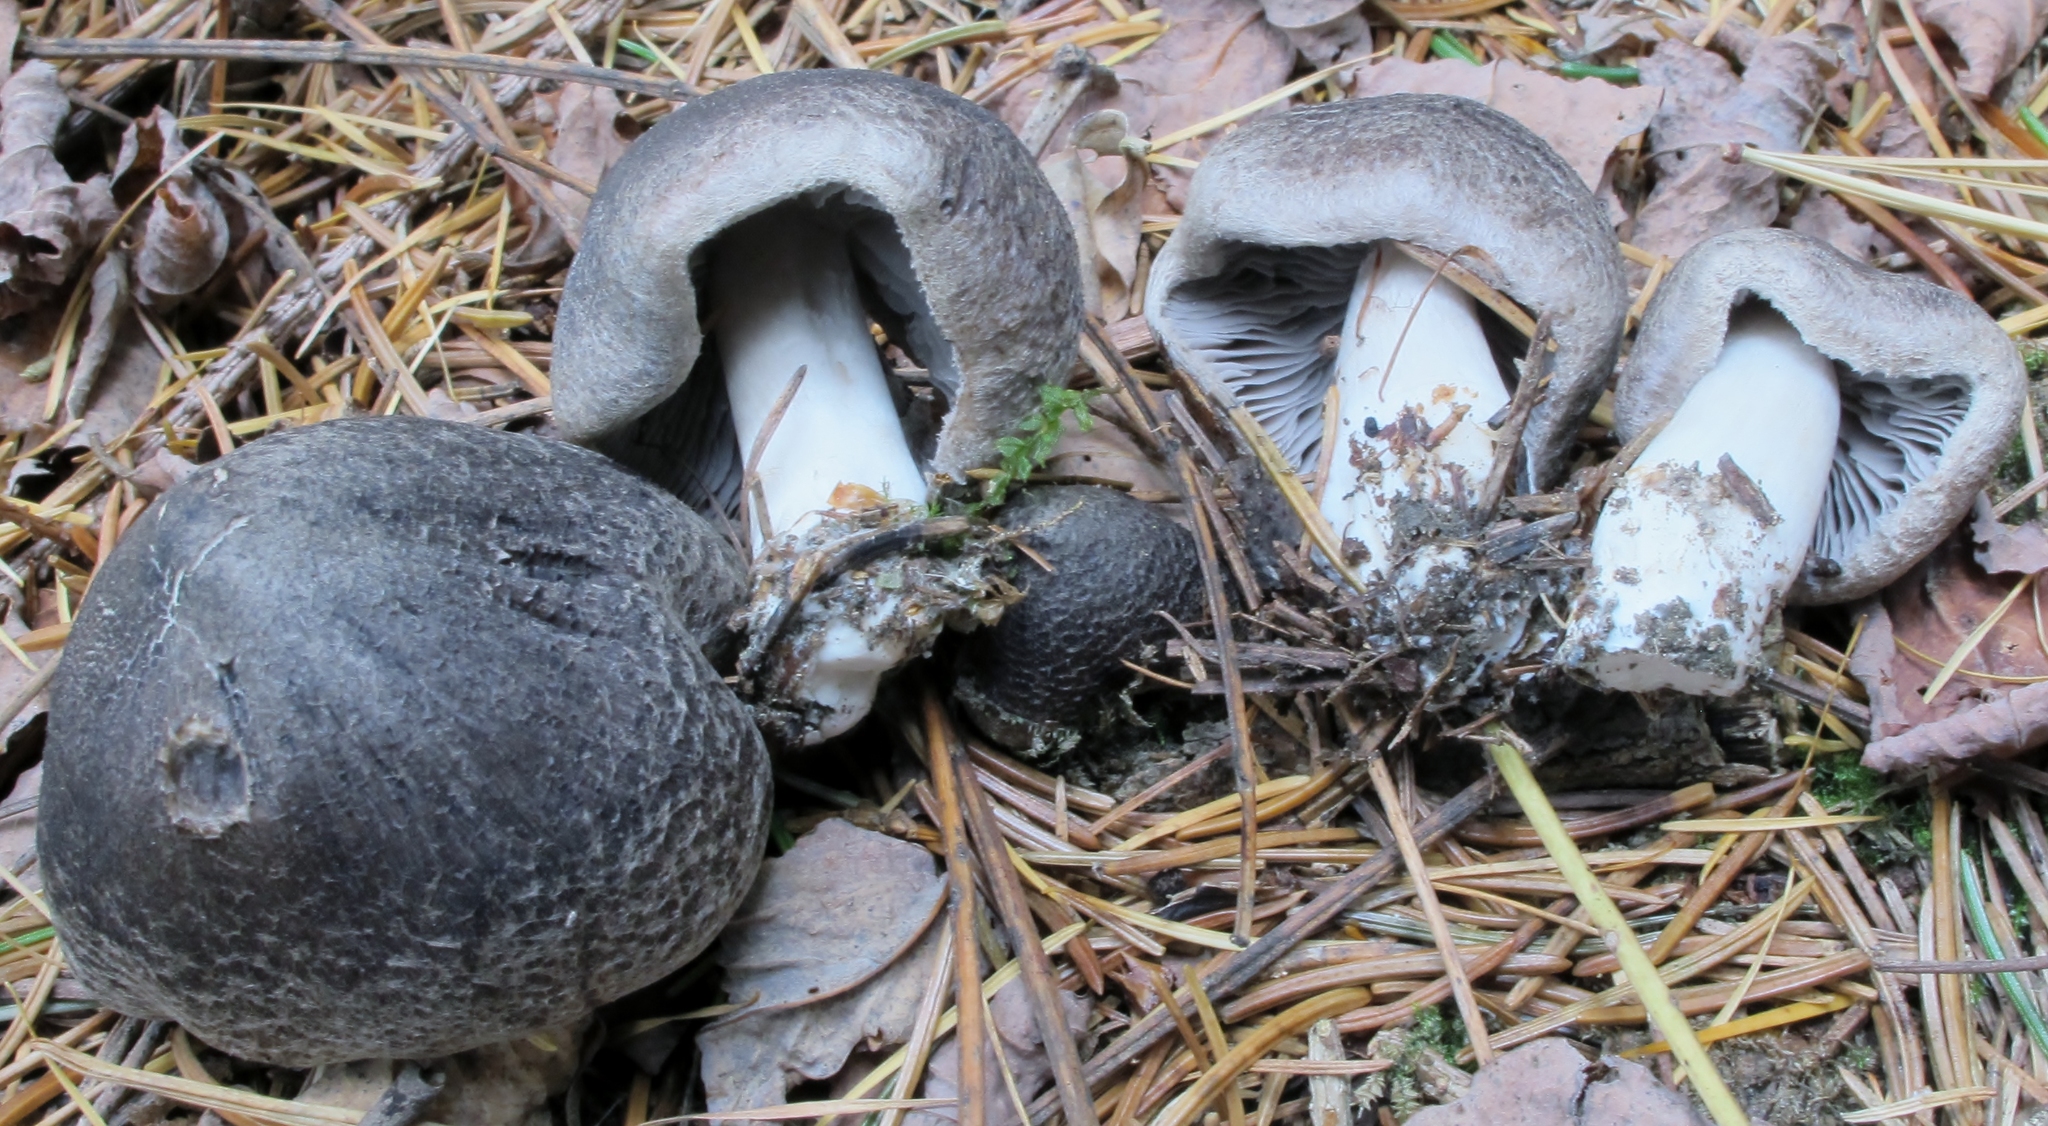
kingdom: Fungi
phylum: Basidiomycota
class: Agaricomycetes
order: Agaricales
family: Tricholomataceae
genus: Tricholoma
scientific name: Tricholoma terreum
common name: Grey knight
